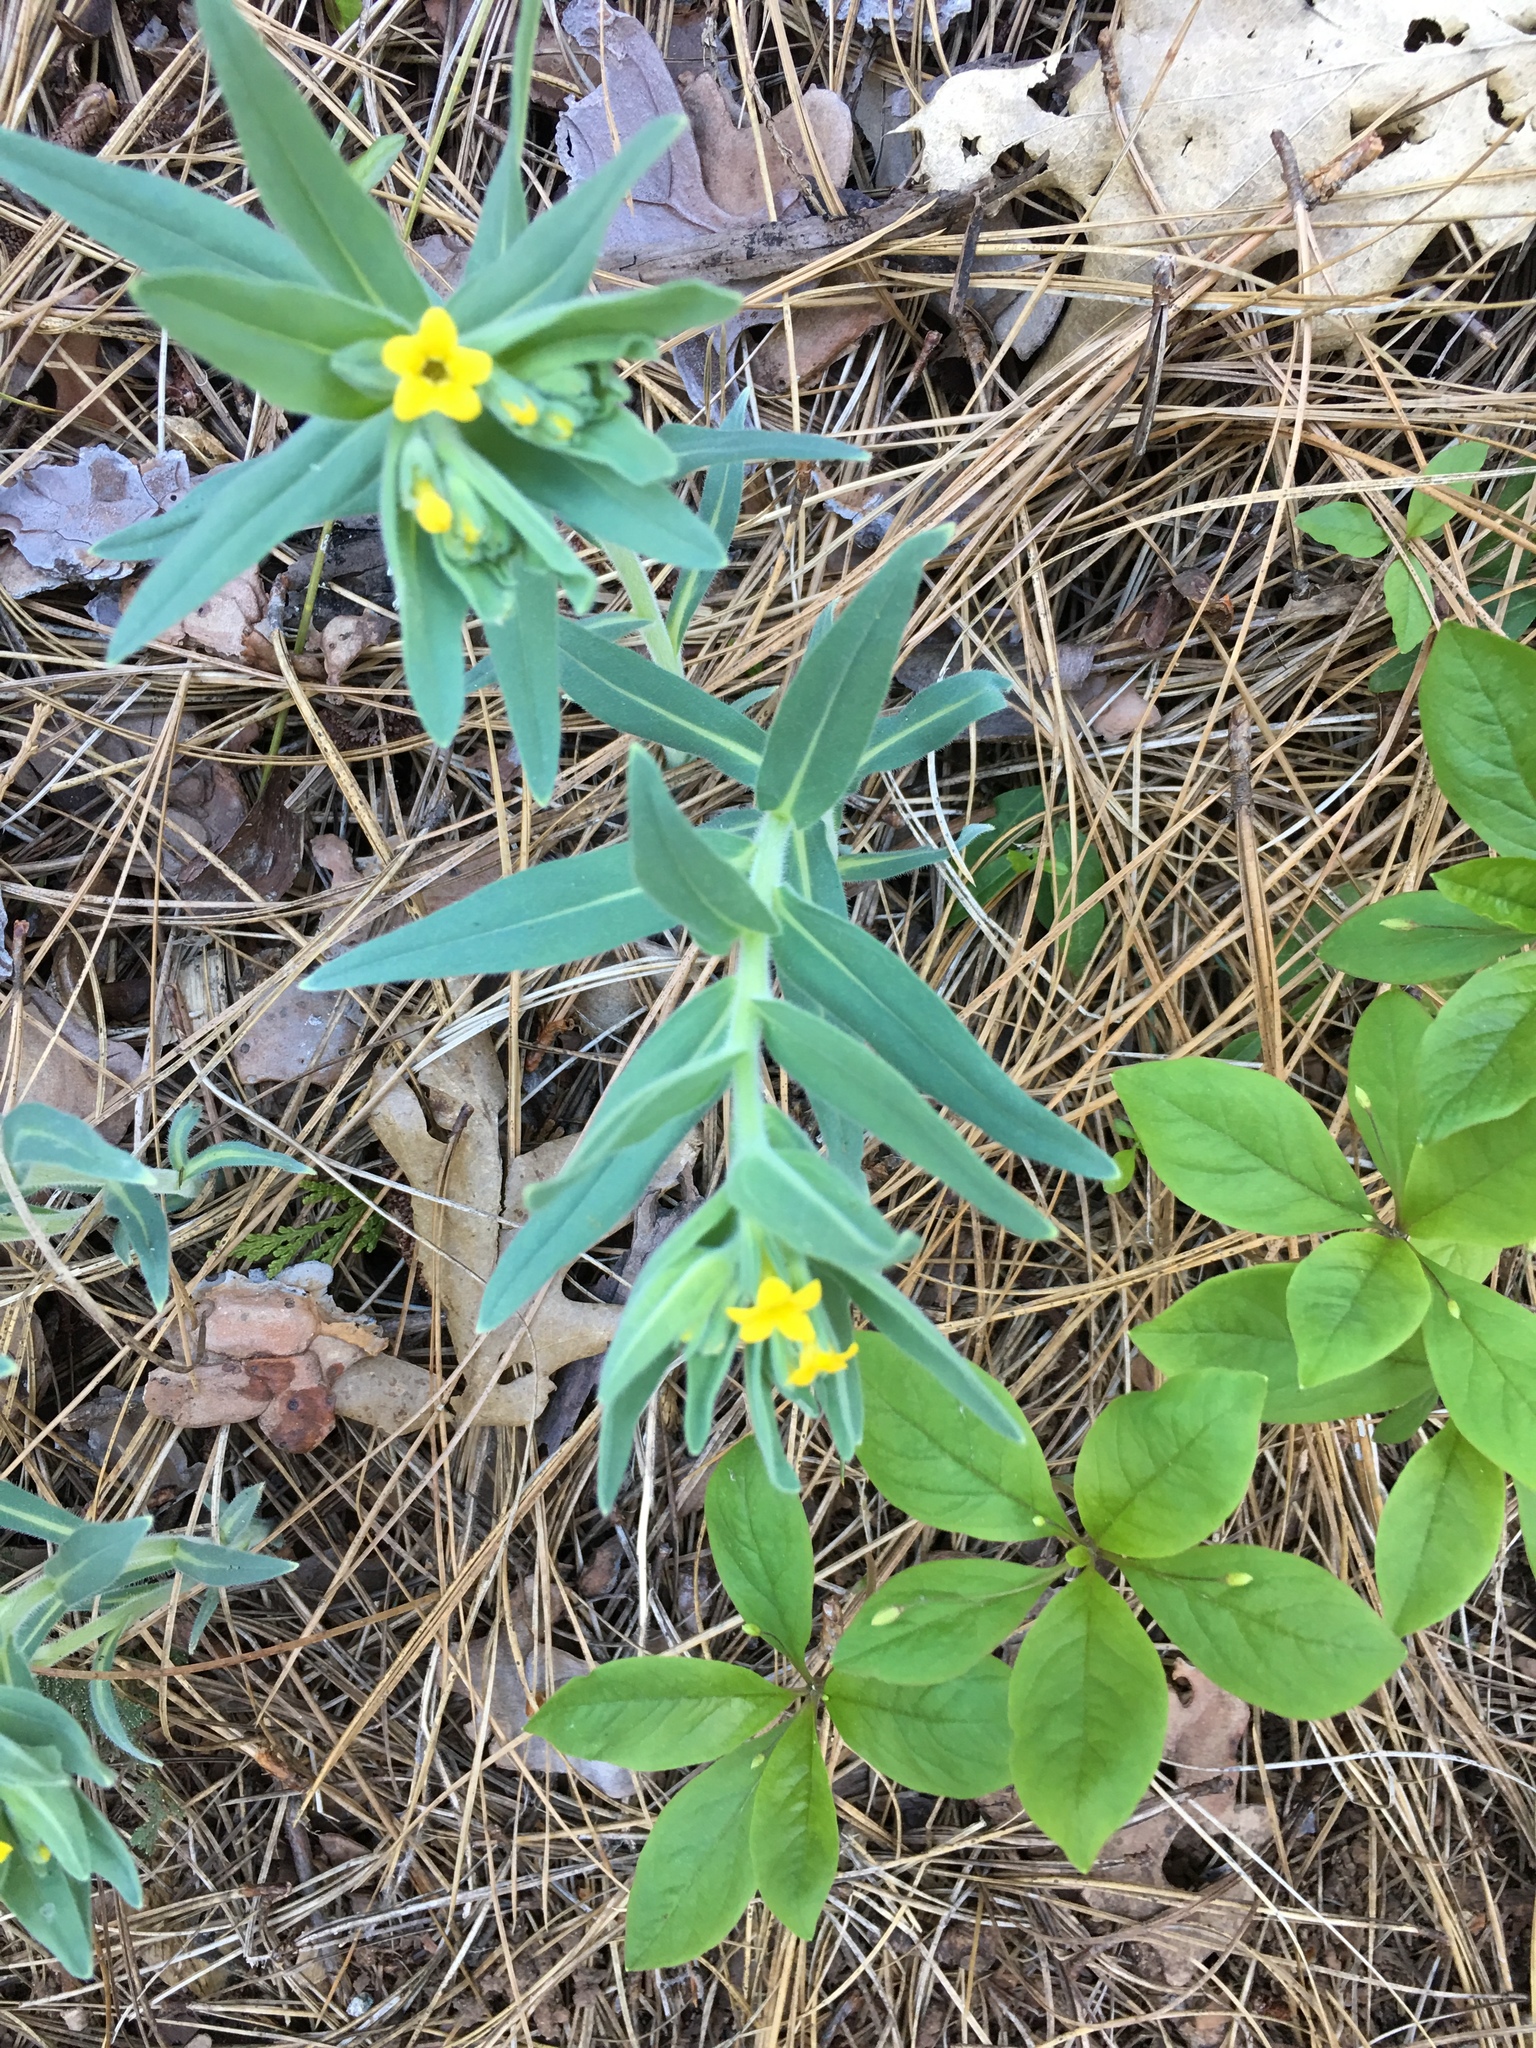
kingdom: Plantae
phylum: Tracheophyta
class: Magnoliopsida
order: Boraginales
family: Boraginaceae
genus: Lithospermum
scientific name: Lithospermum californicum
